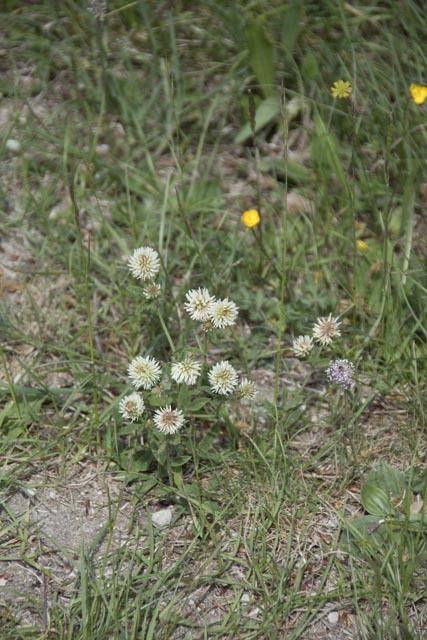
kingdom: Plantae
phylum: Tracheophyta
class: Magnoliopsida
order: Fabales
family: Fabaceae
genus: Trifolium
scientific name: Trifolium montanum
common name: Mountain clover
